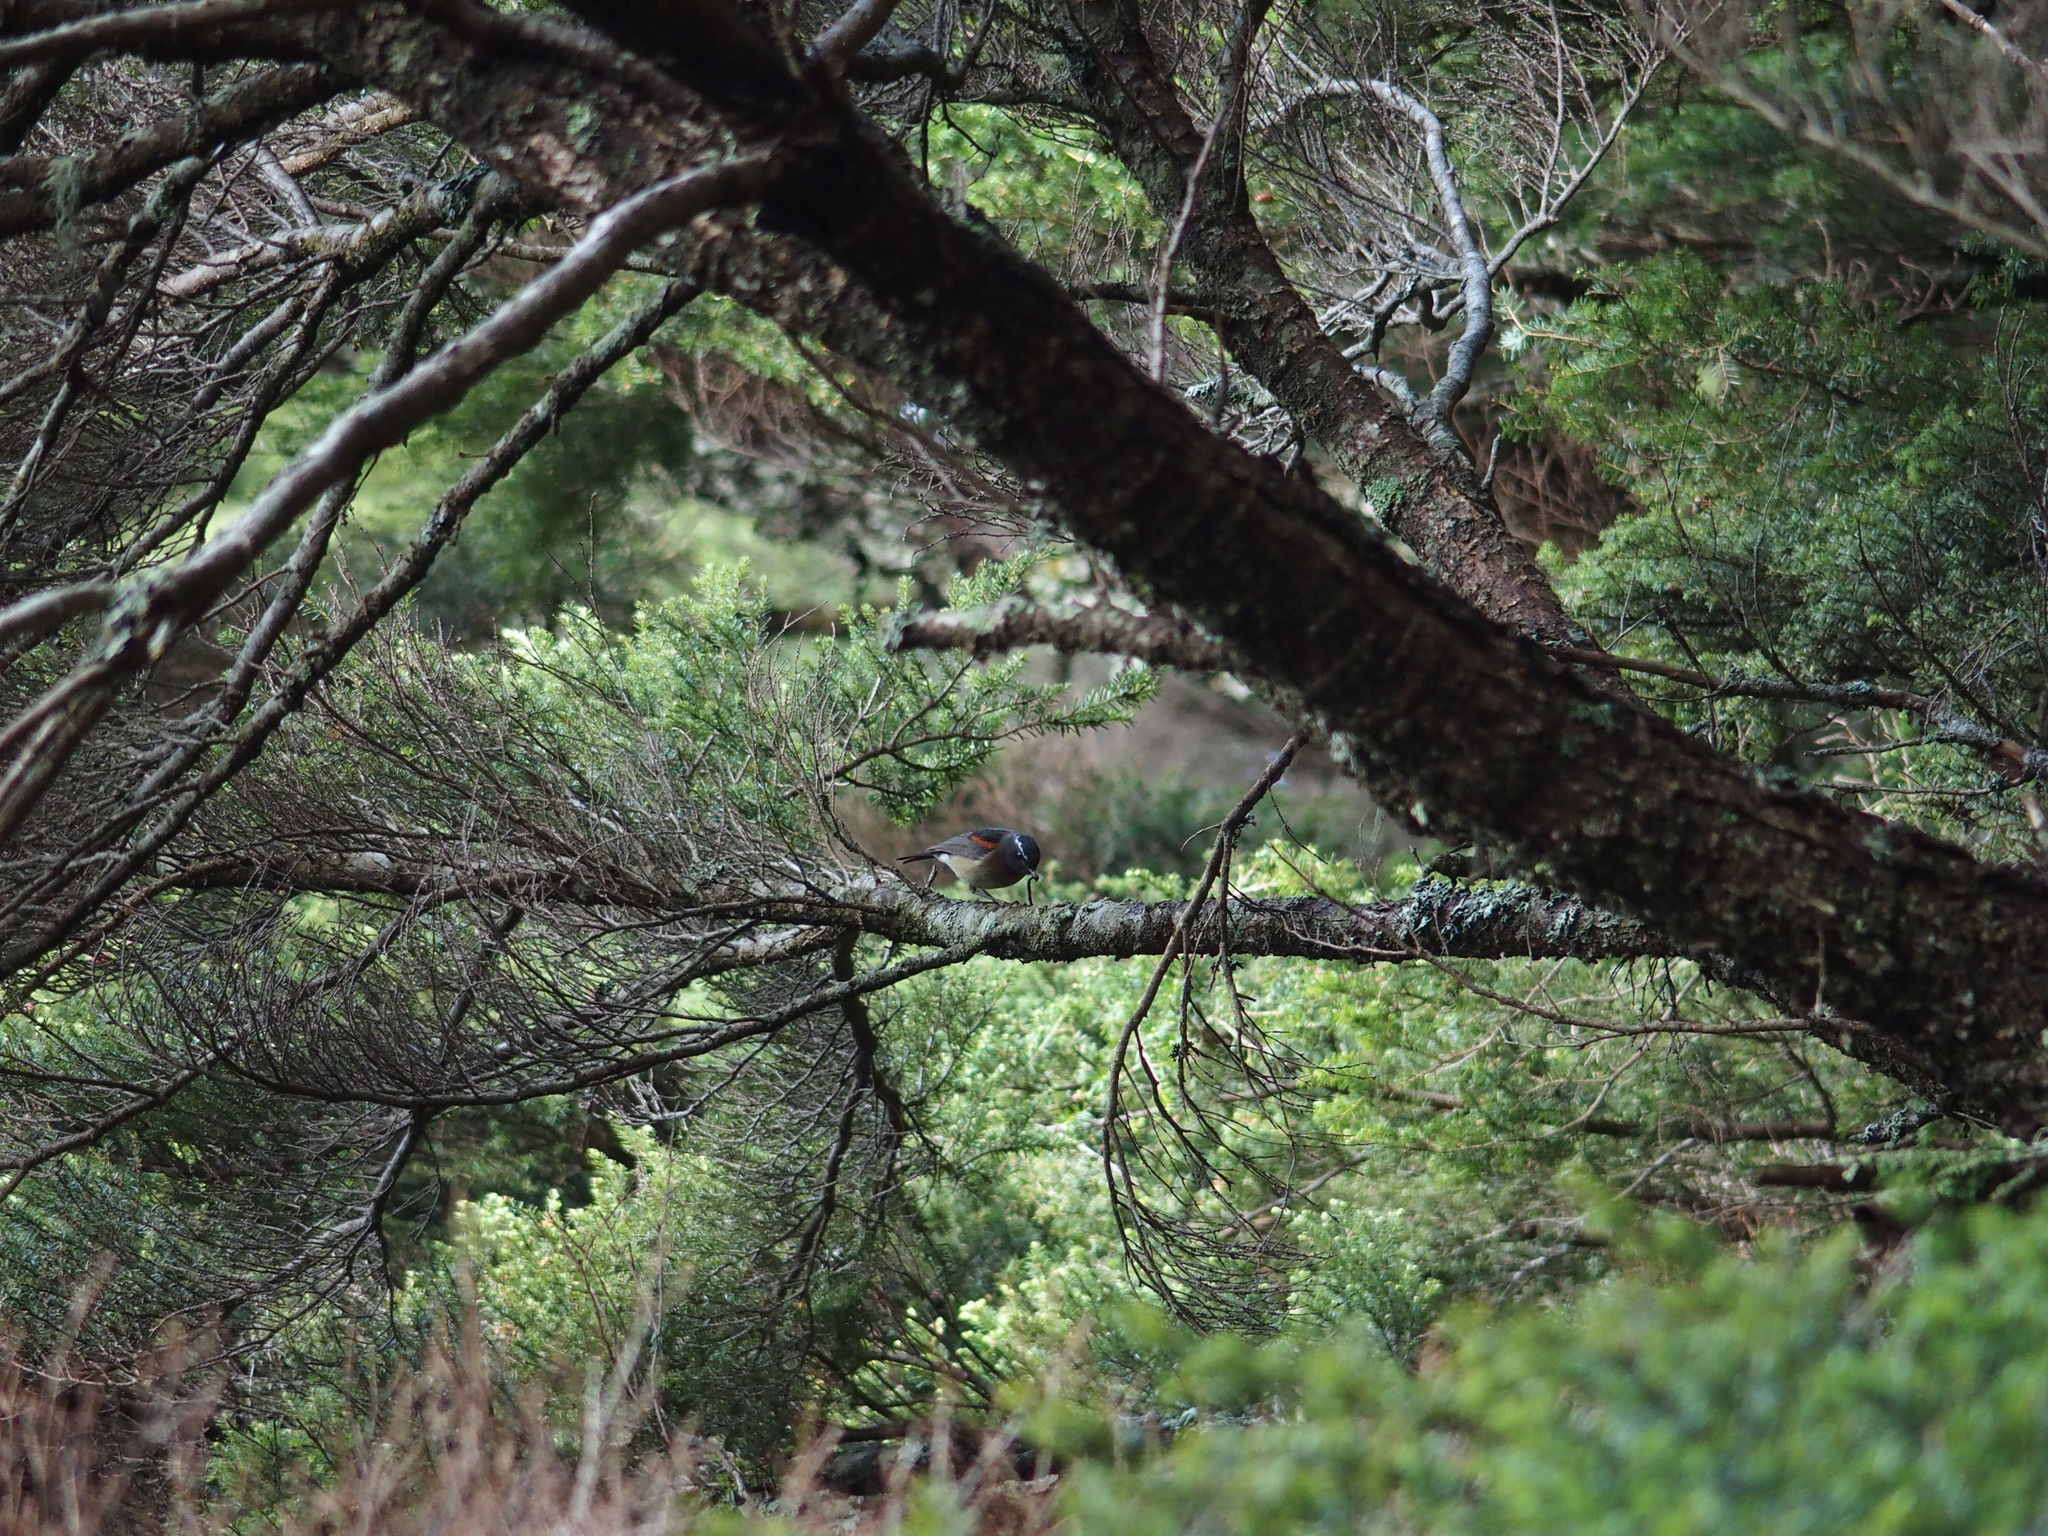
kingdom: Animalia
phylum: Chordata
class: Aves
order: Passeriformes
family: Muscicapidae
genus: Tarsiger
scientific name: Tarsiger johnstoniae
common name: Collared bush robin
